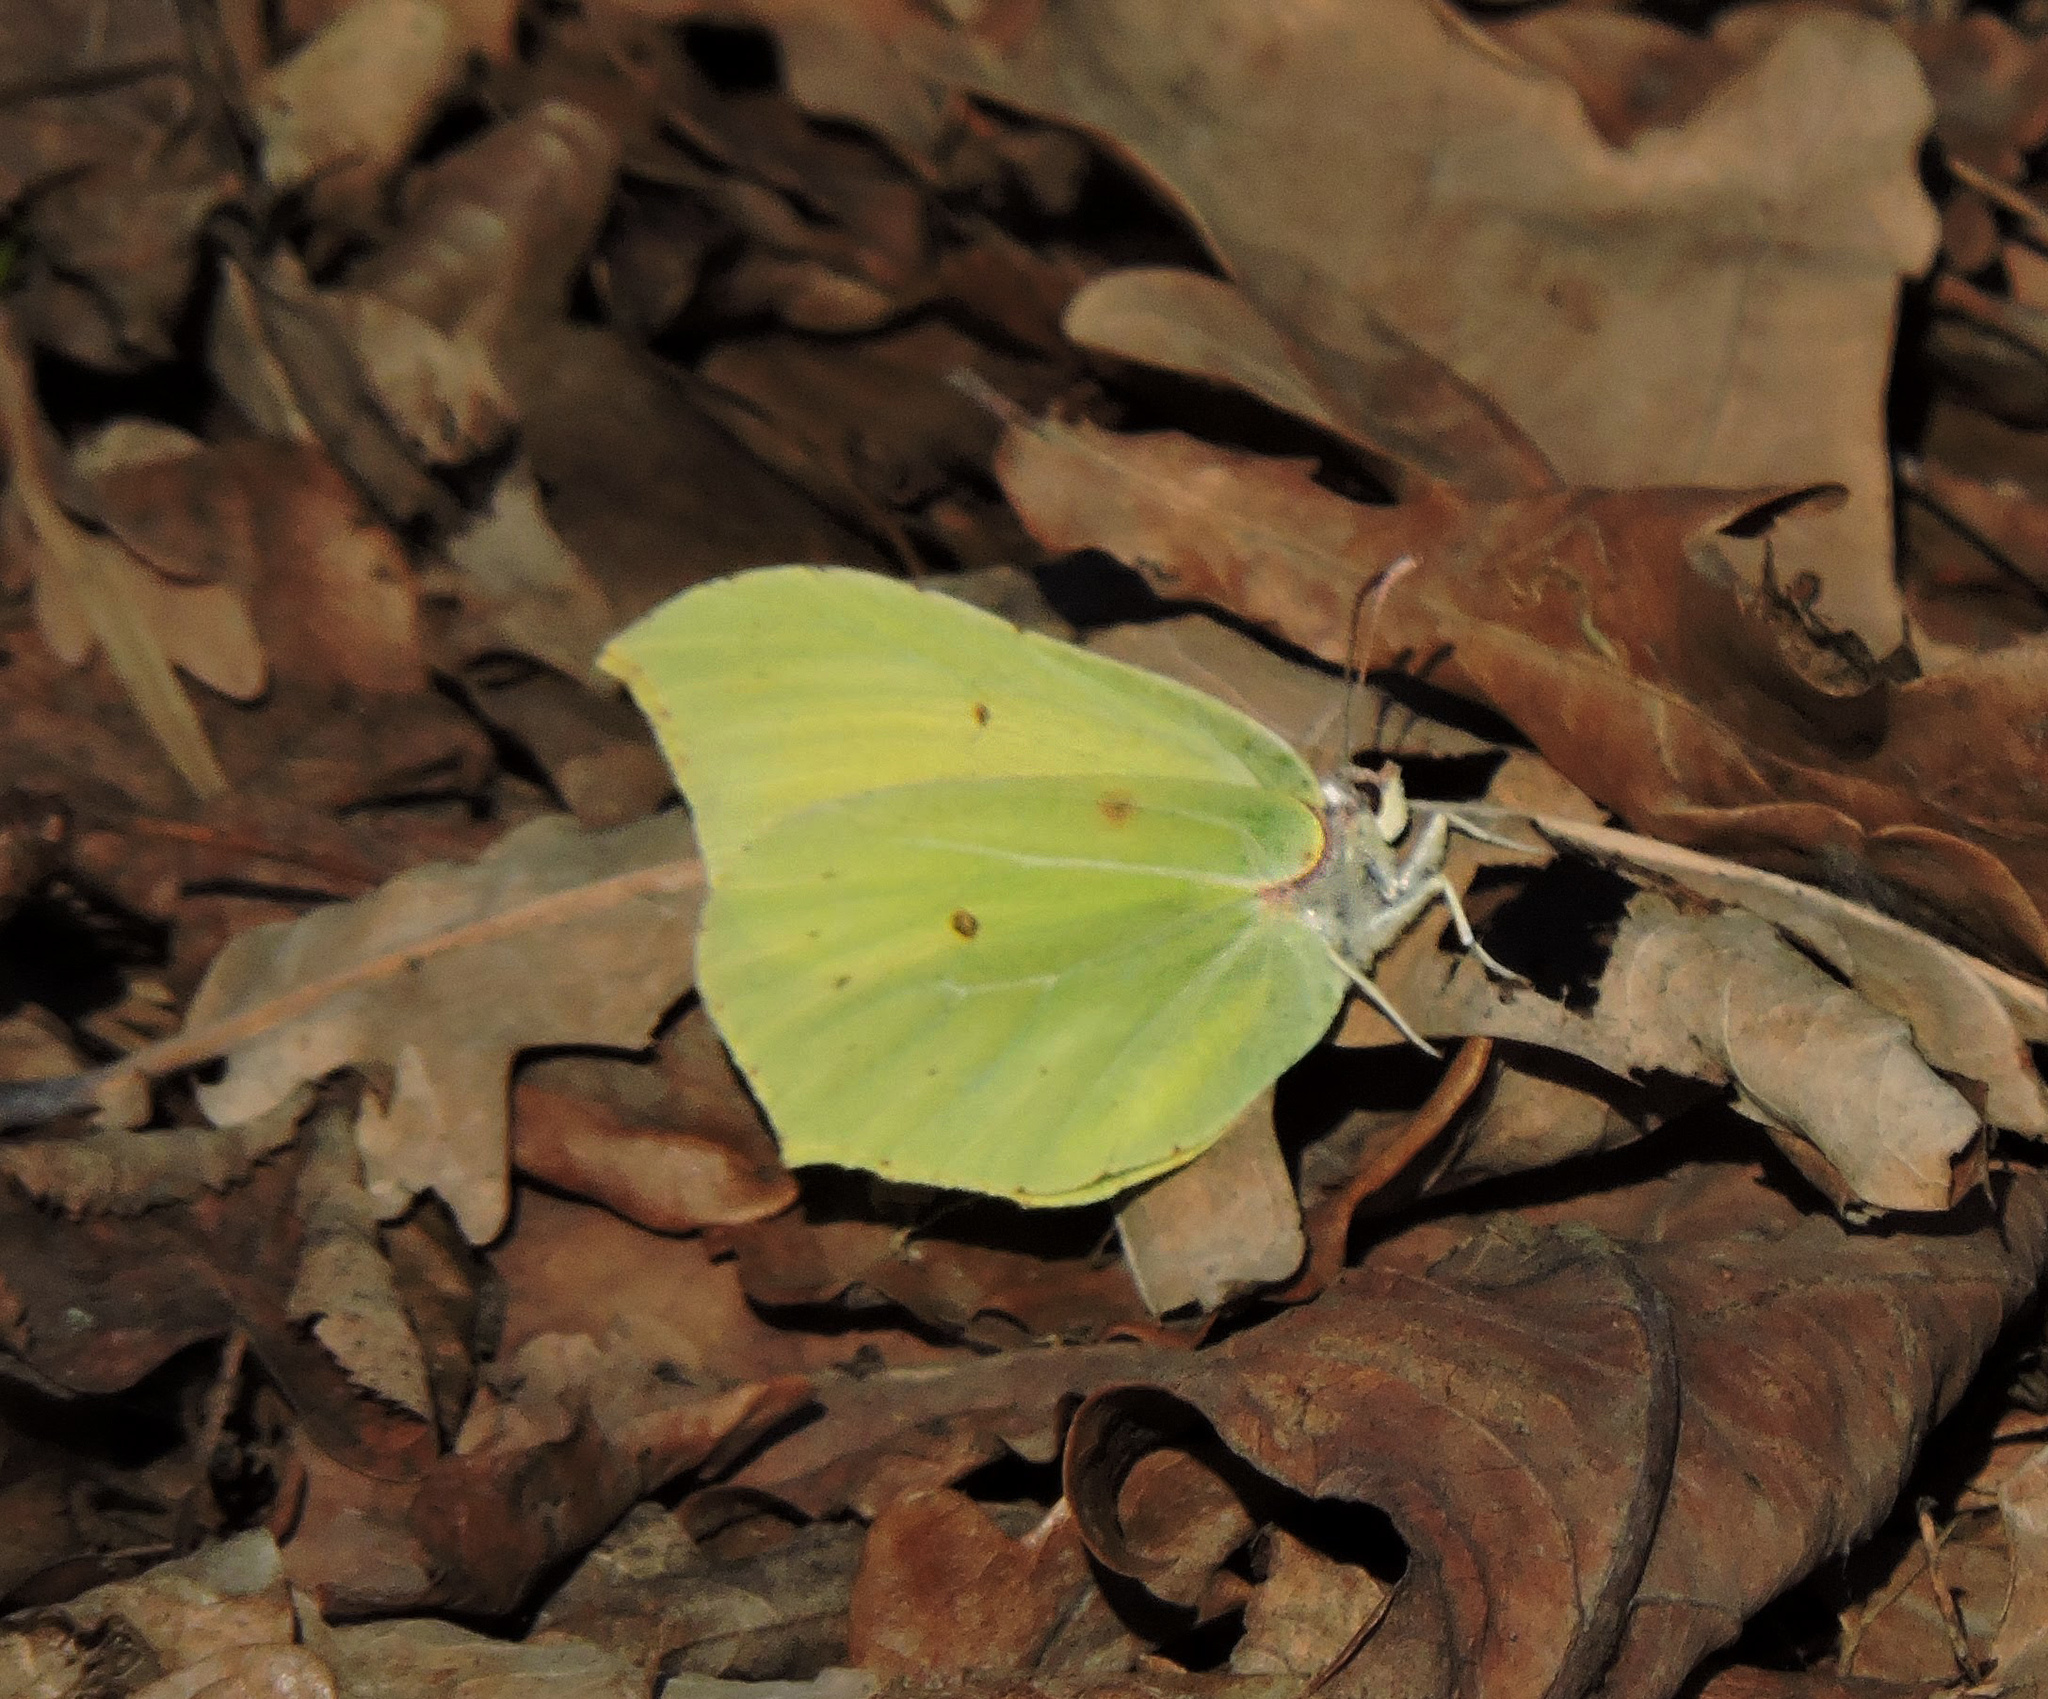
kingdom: Animalia
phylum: Arthropoda
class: Insecta
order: Lepidoptera
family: Pieridae
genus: Gonepteryx
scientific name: Gonepteryx rhamni
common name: Brimstone
